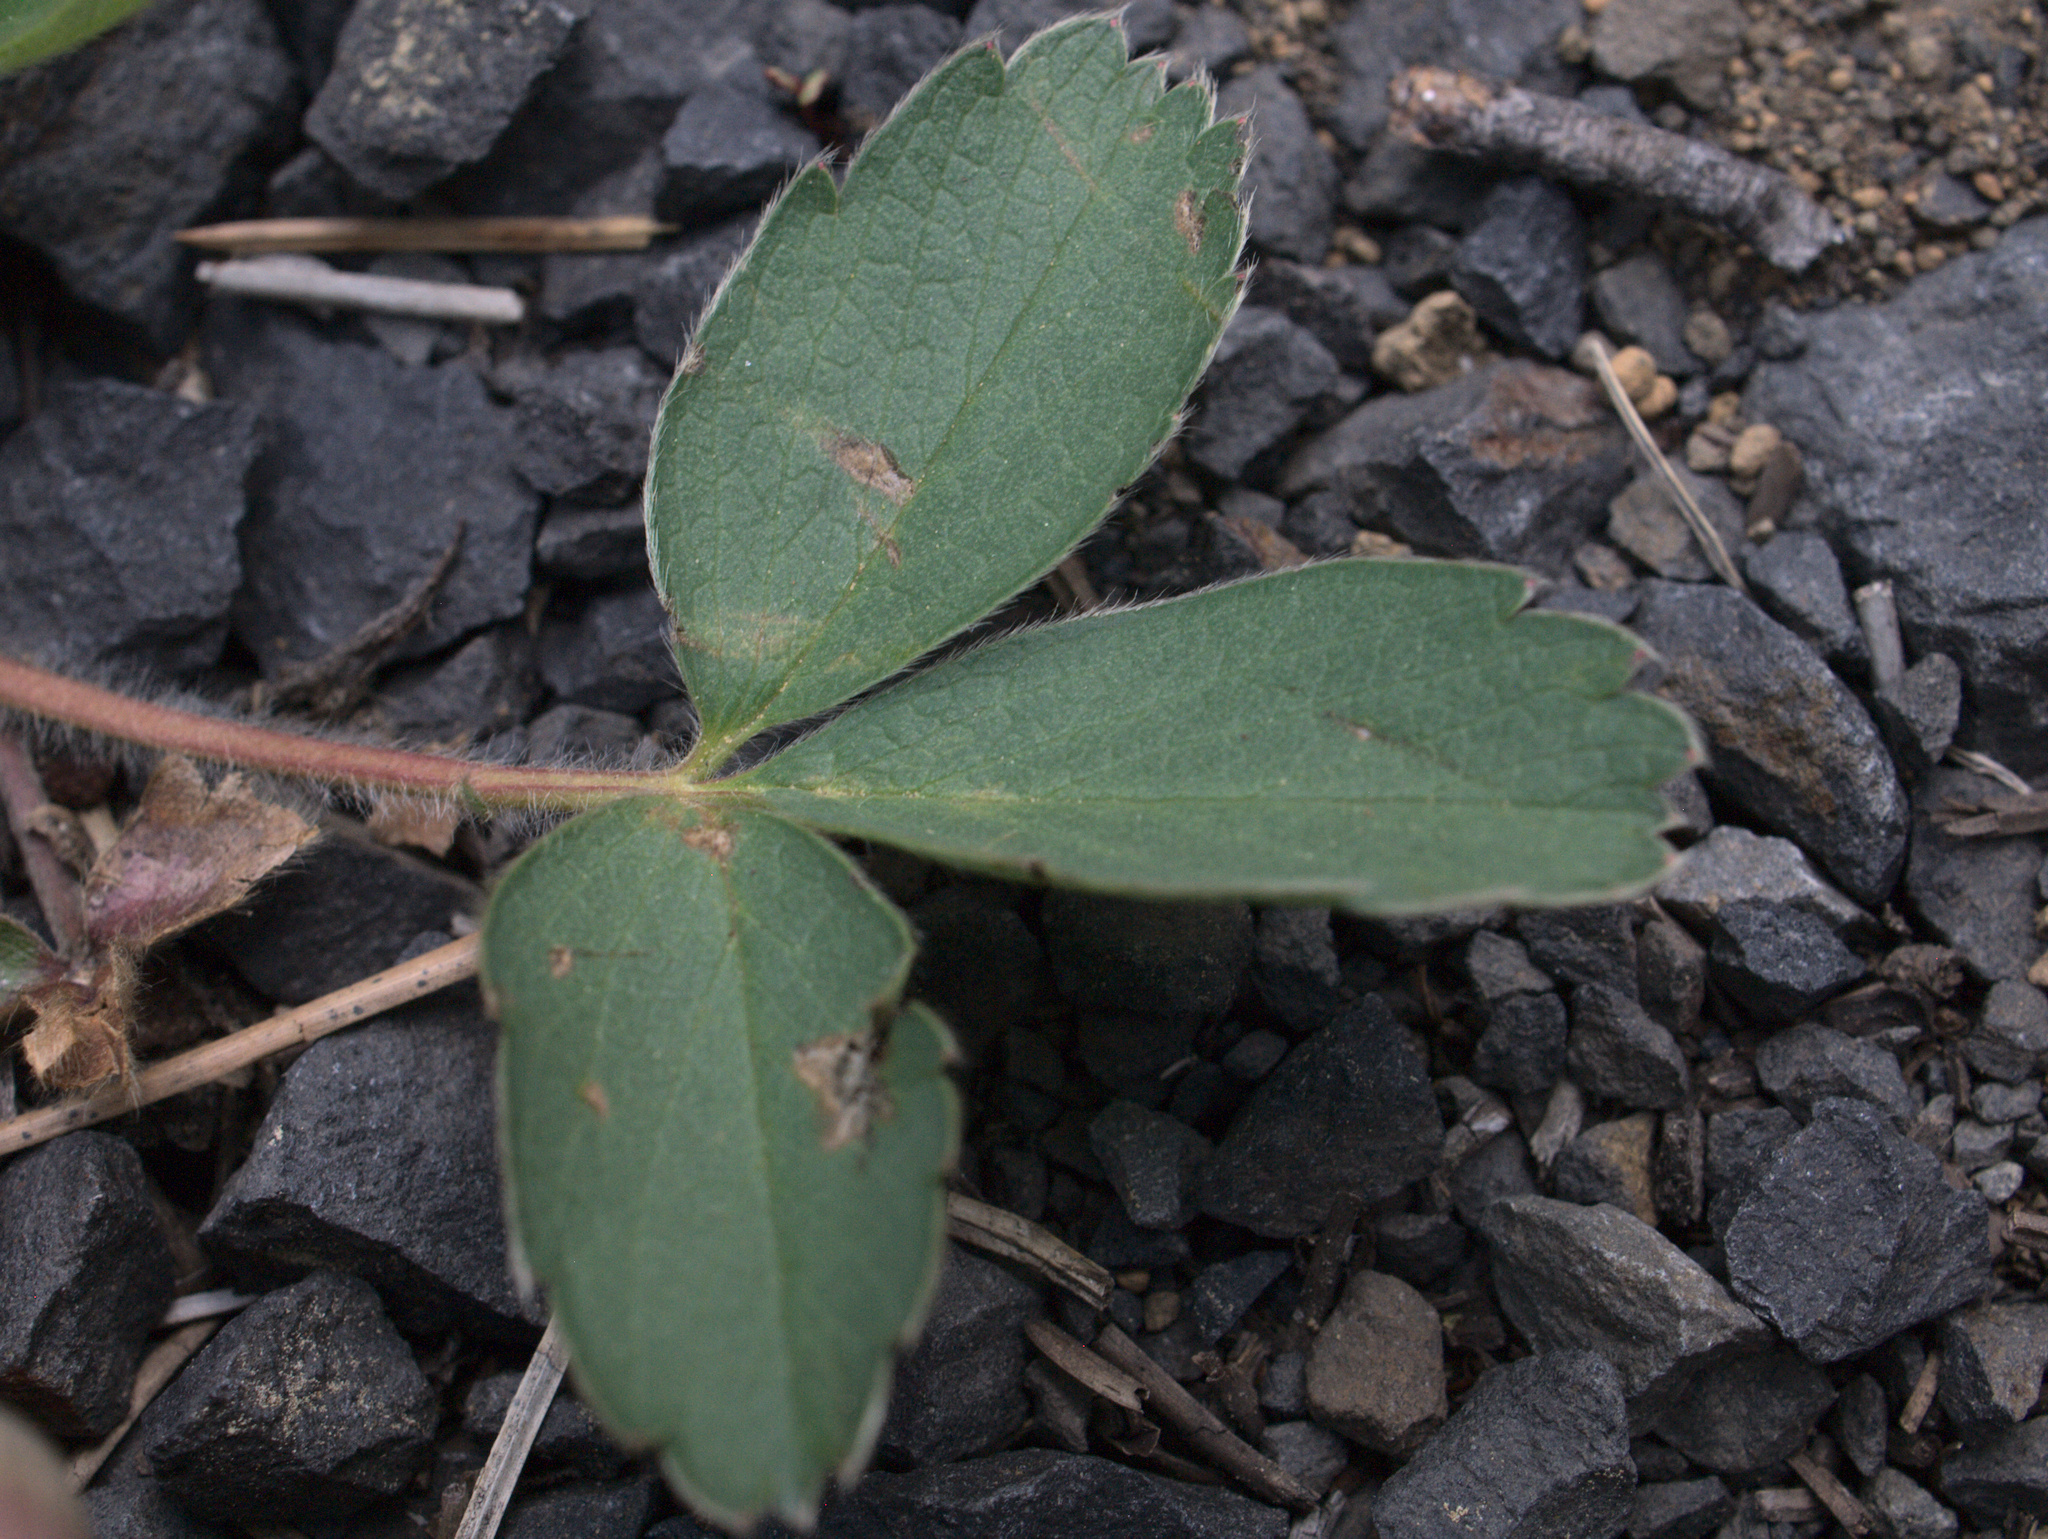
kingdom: Plantae
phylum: Tracheophyta
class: Magnoliopsida
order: Rosales
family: Rosaceae
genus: Fragaria
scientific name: Fragaria virginiana
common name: Thickleaved wild strawberry
